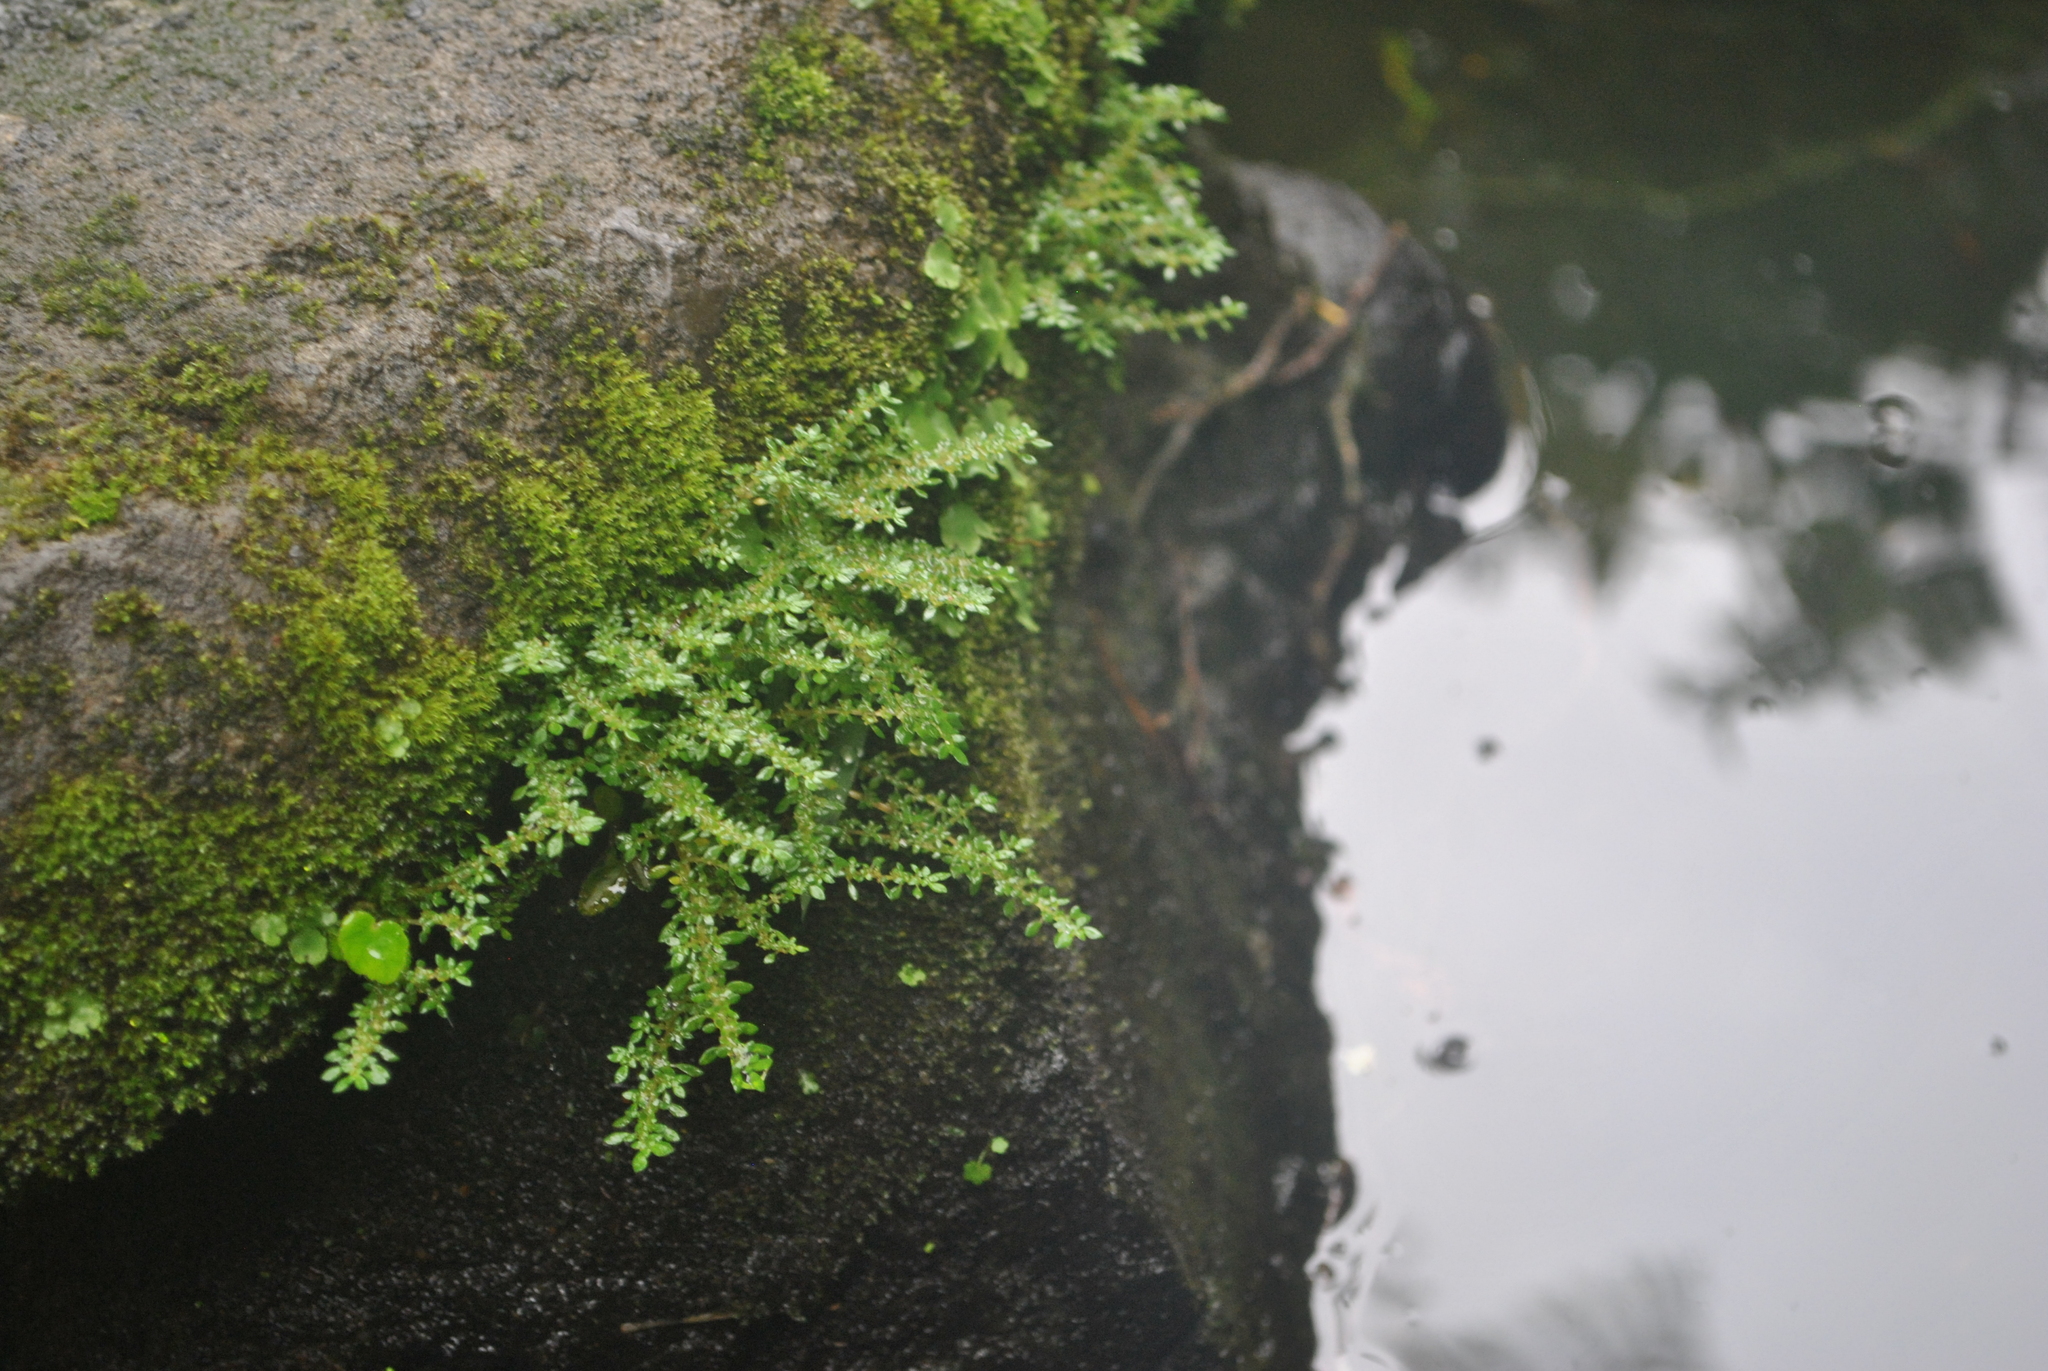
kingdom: Plantae
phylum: Tracheophyta
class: Magnoliopsida
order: Rosales
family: Urticaceae
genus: Pilea
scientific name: Pilea microphylla
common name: Artillery-plant
